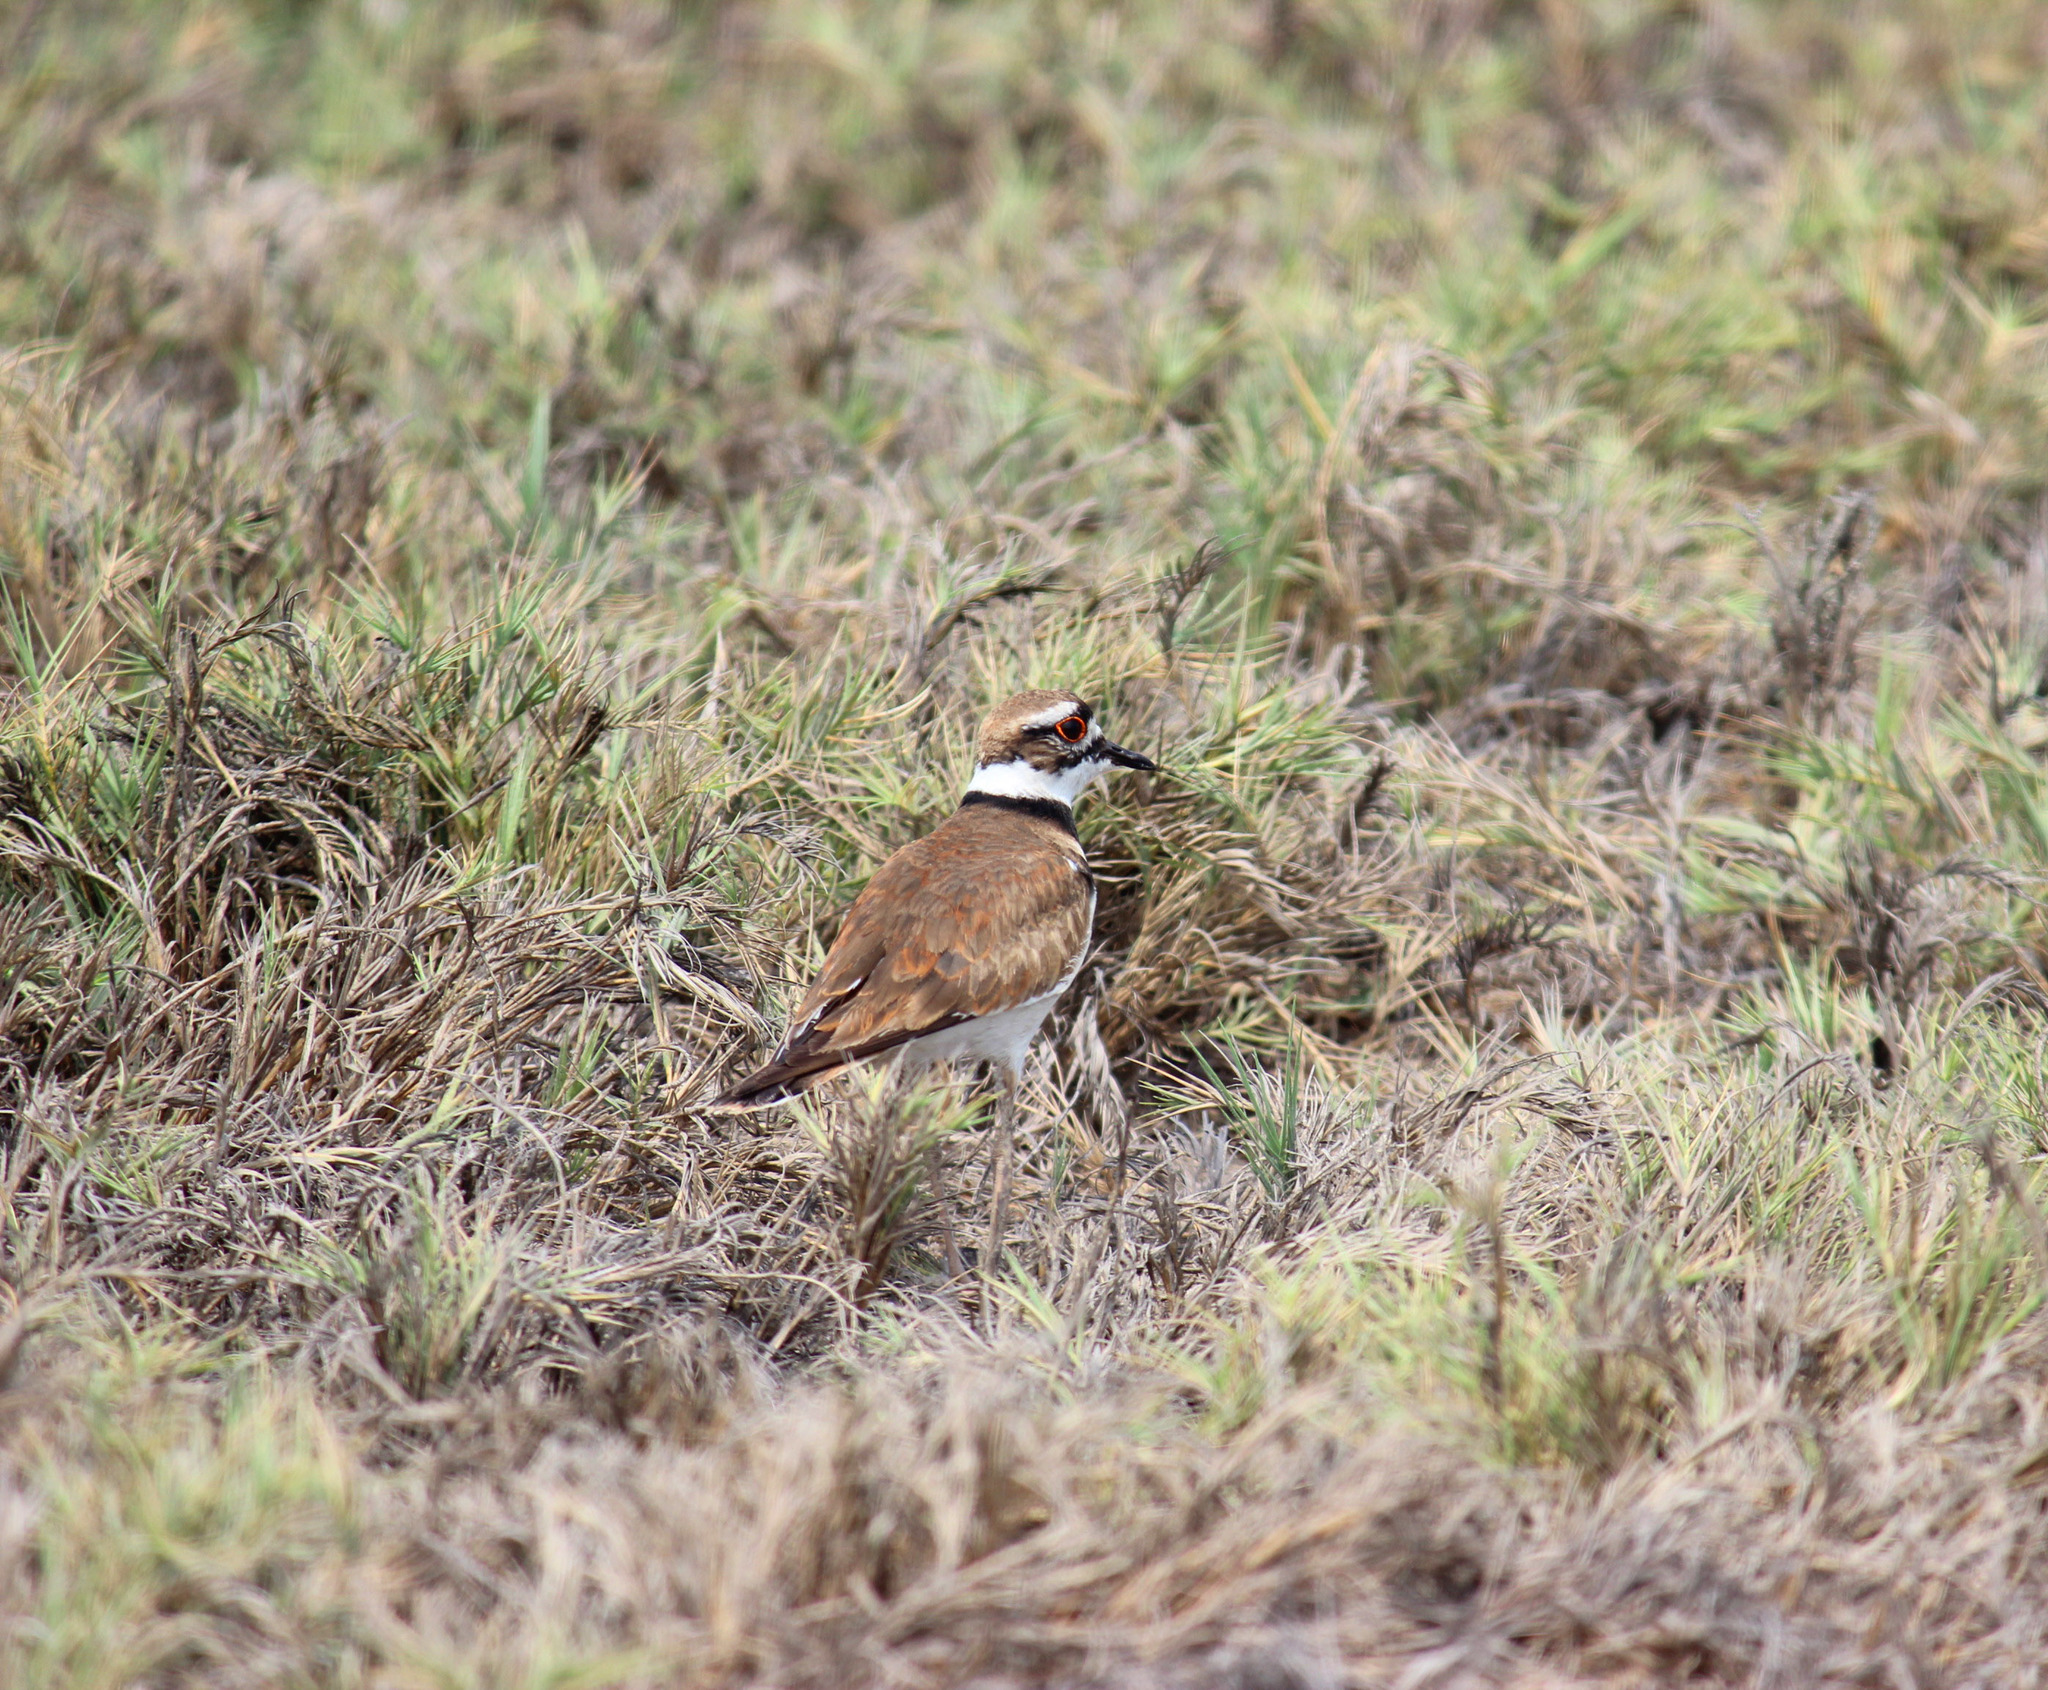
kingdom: Animalia
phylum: Chordata
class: Aves
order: Charadriiformes
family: Charadriidae
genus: Charadrius
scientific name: Charadrius vociferus
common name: Killdeer
